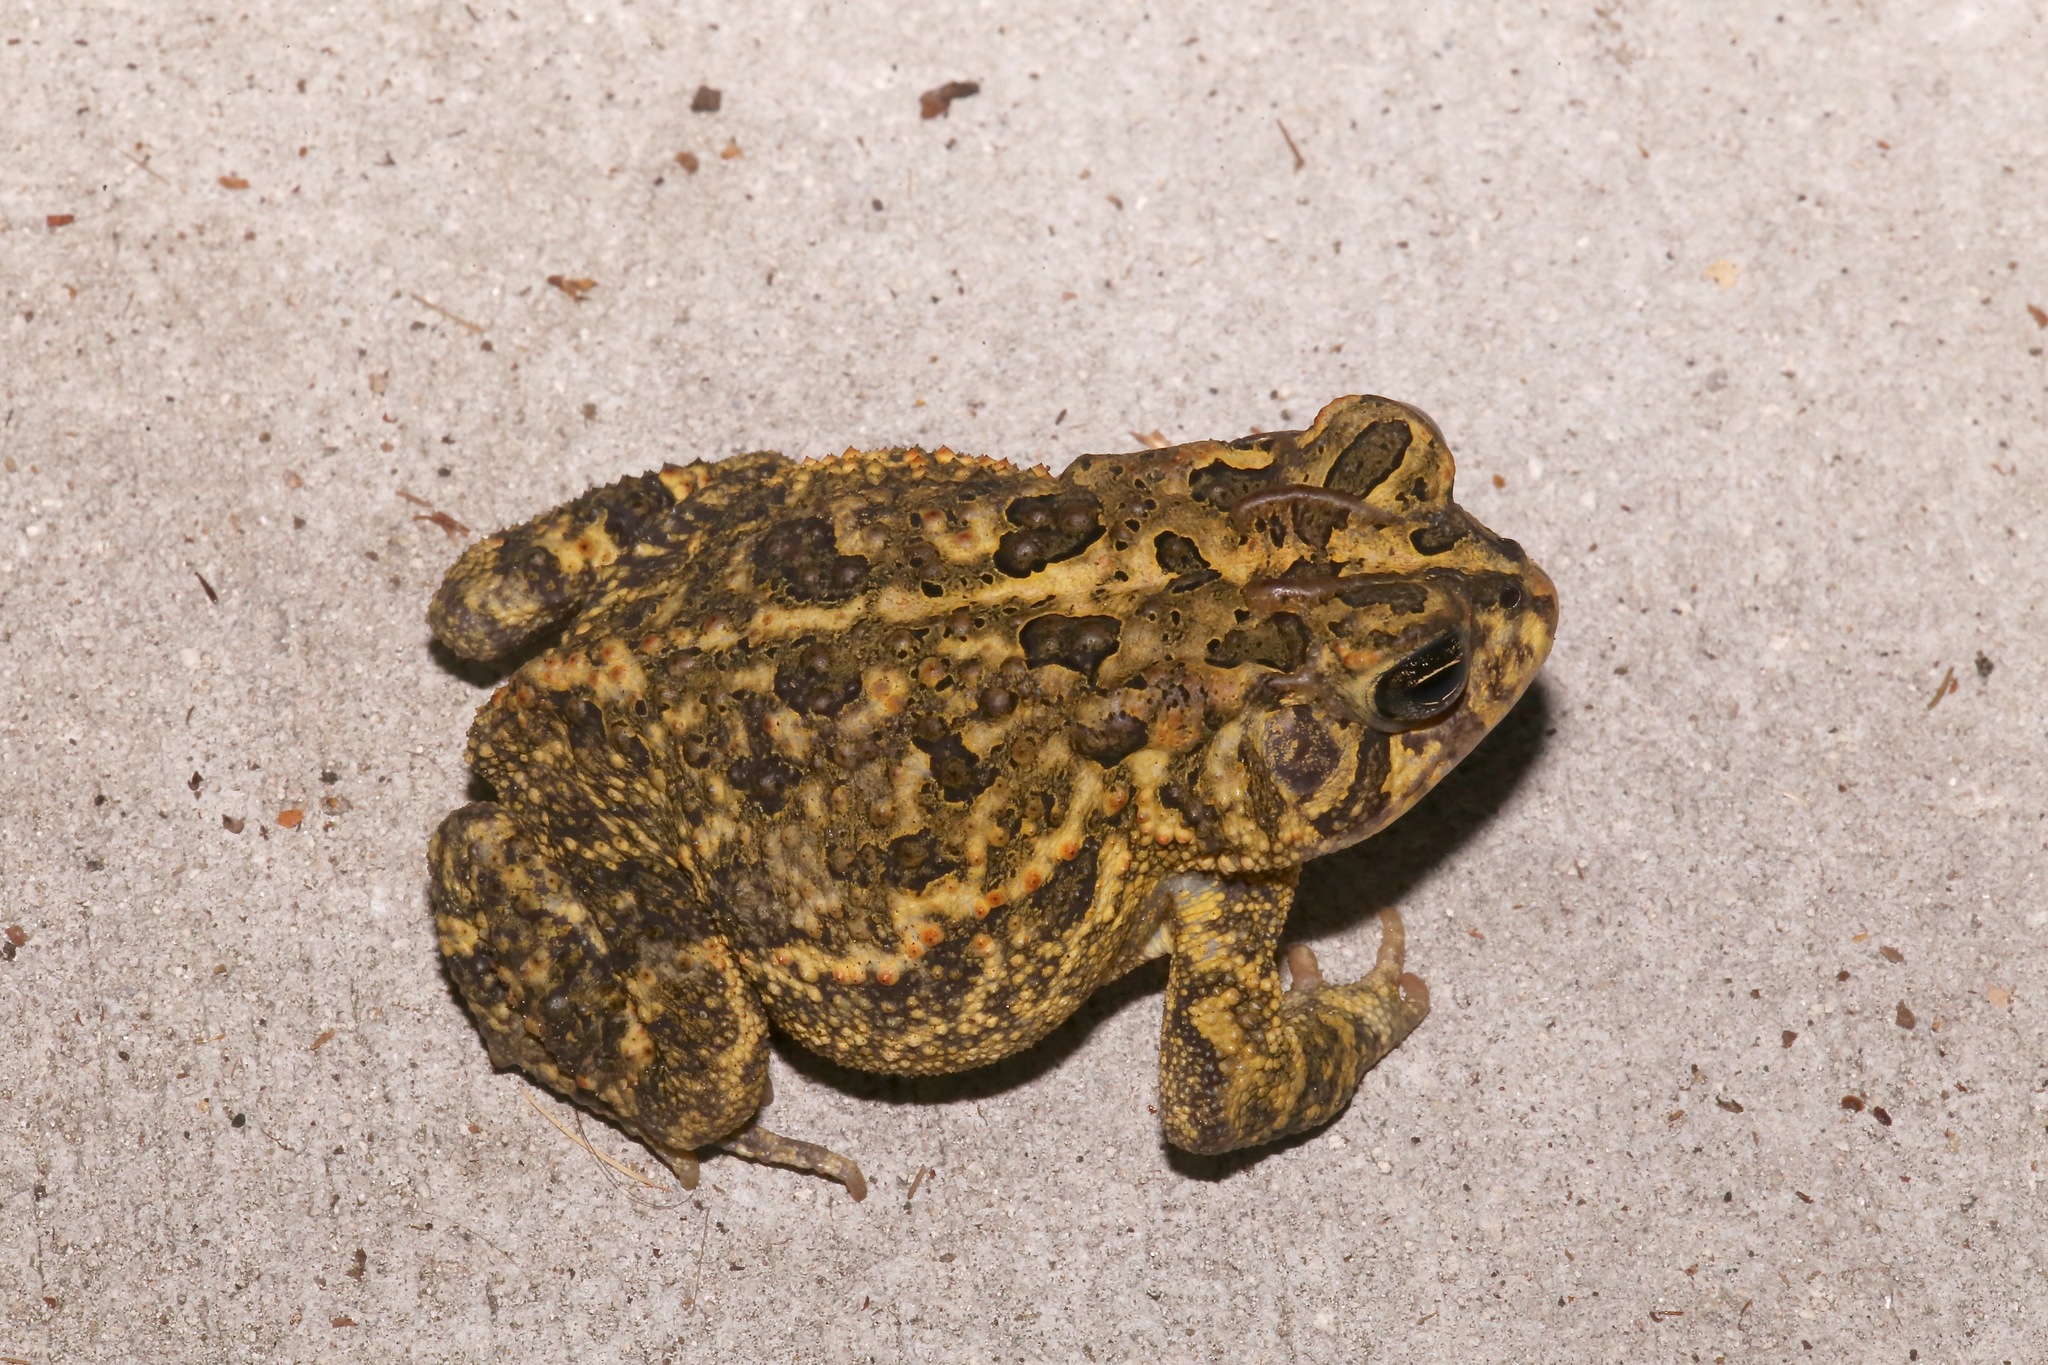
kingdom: Animalia
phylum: Chordata
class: Amphibia
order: Anura
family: Bufonidae
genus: Anaxyrus
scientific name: Anaxyrus terrestris
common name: Southern toad
